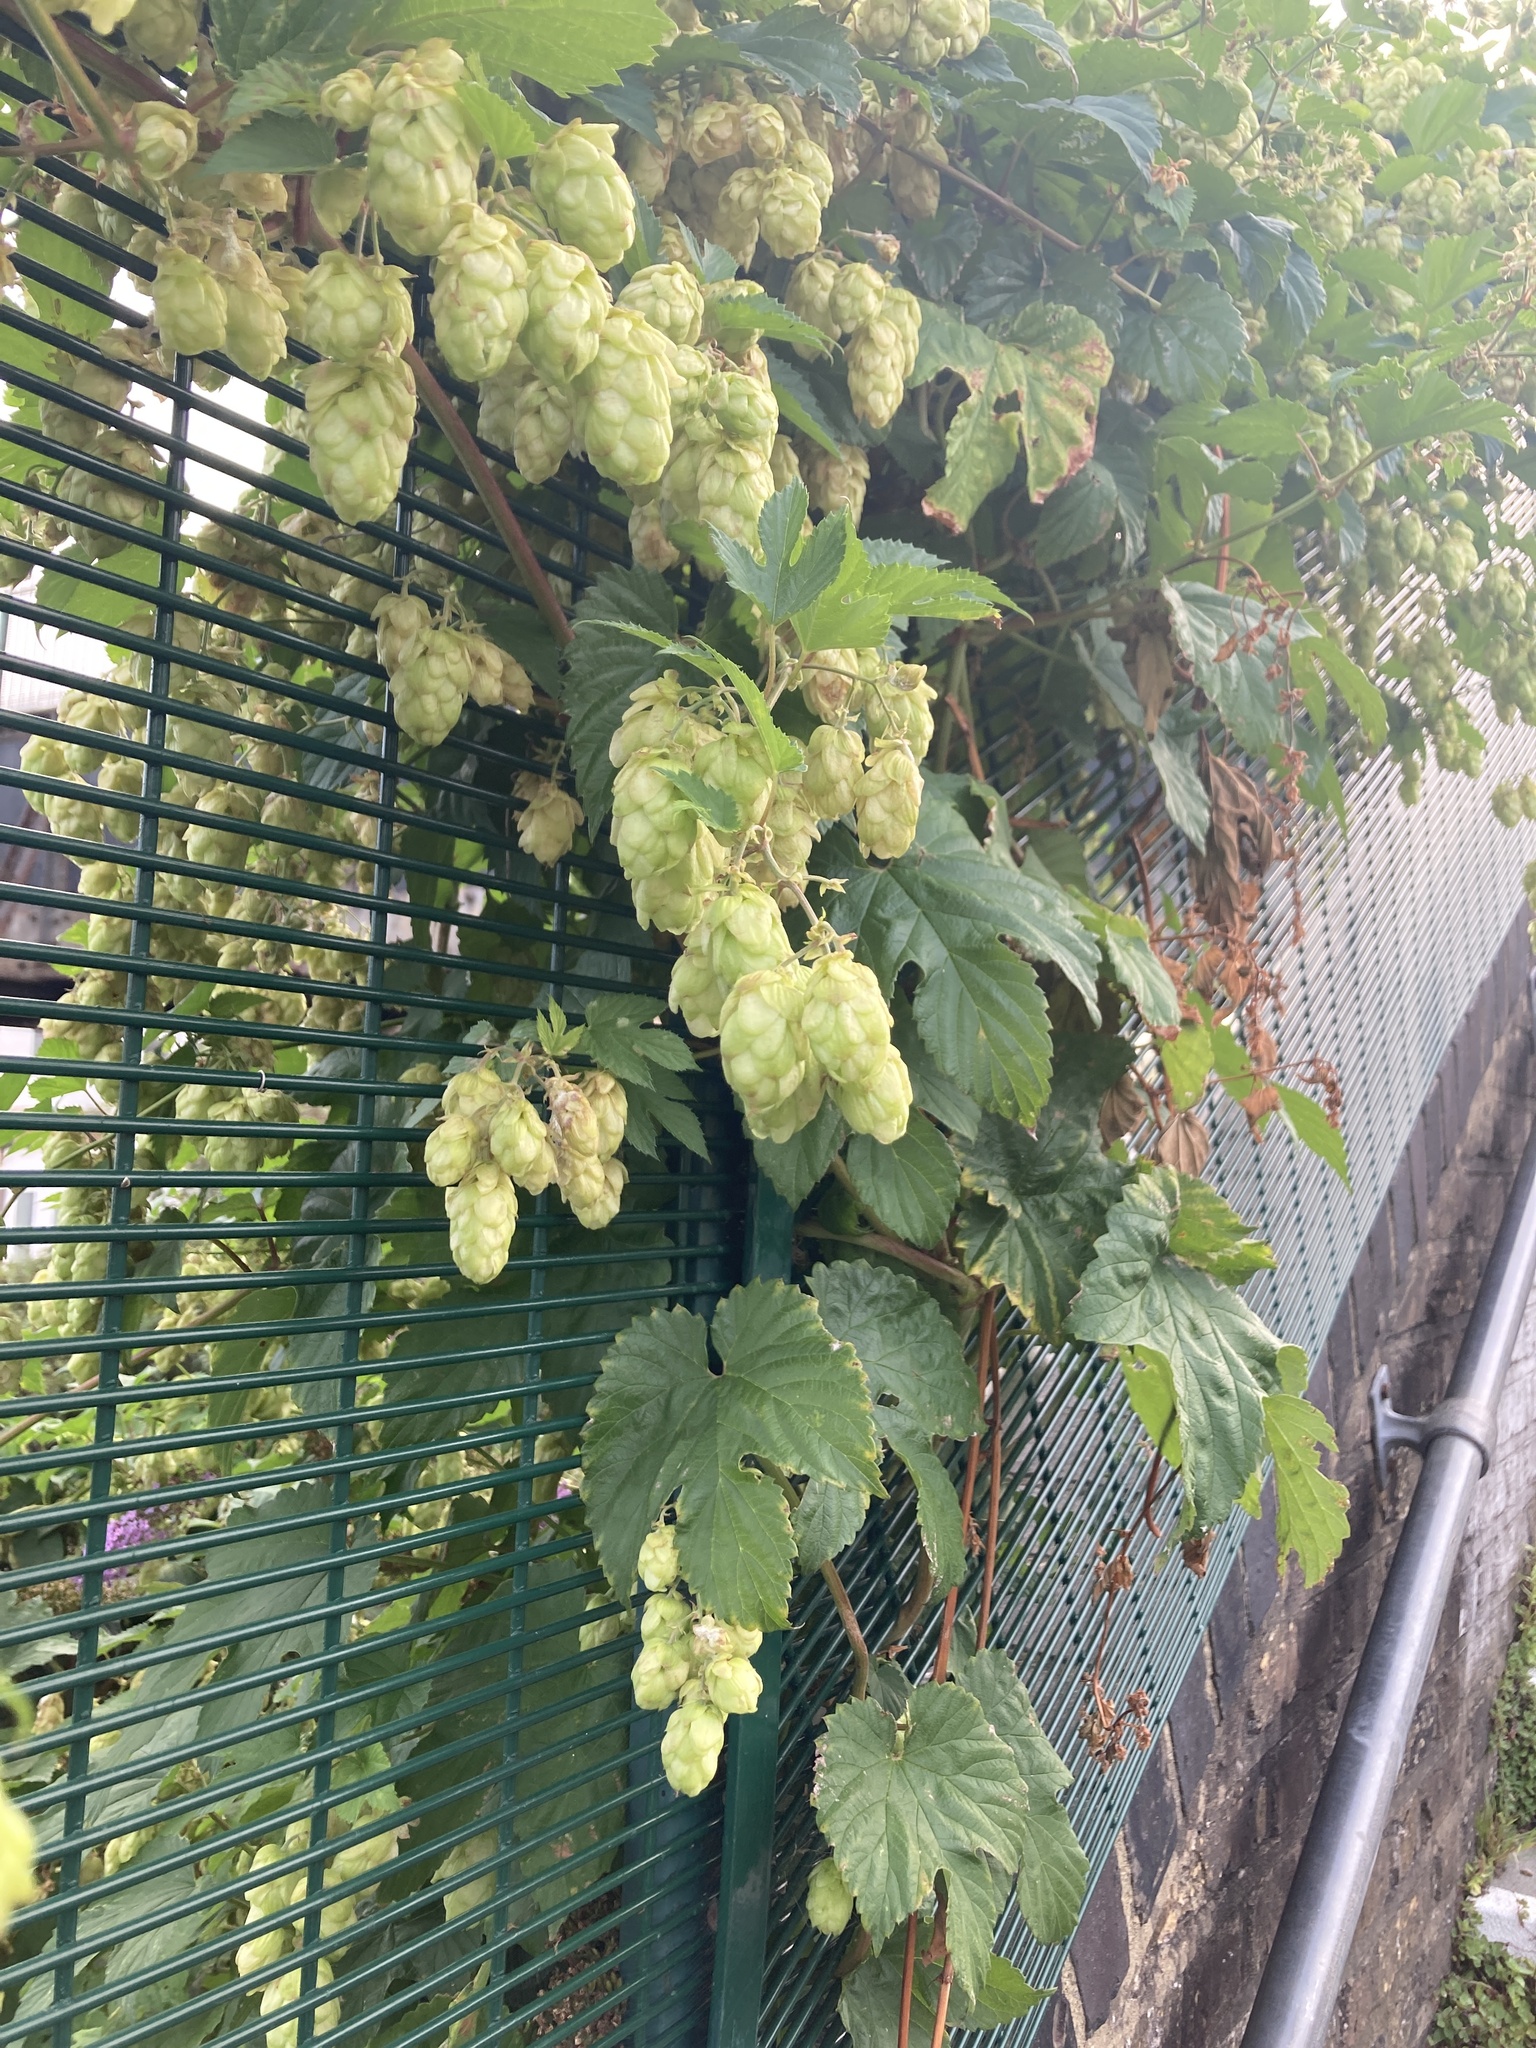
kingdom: Plantae
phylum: Tracheophyta
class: Magnoliopsida
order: Rosales
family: Cannabaceae
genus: Humulus
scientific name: Humulus lupulus
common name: Hop
